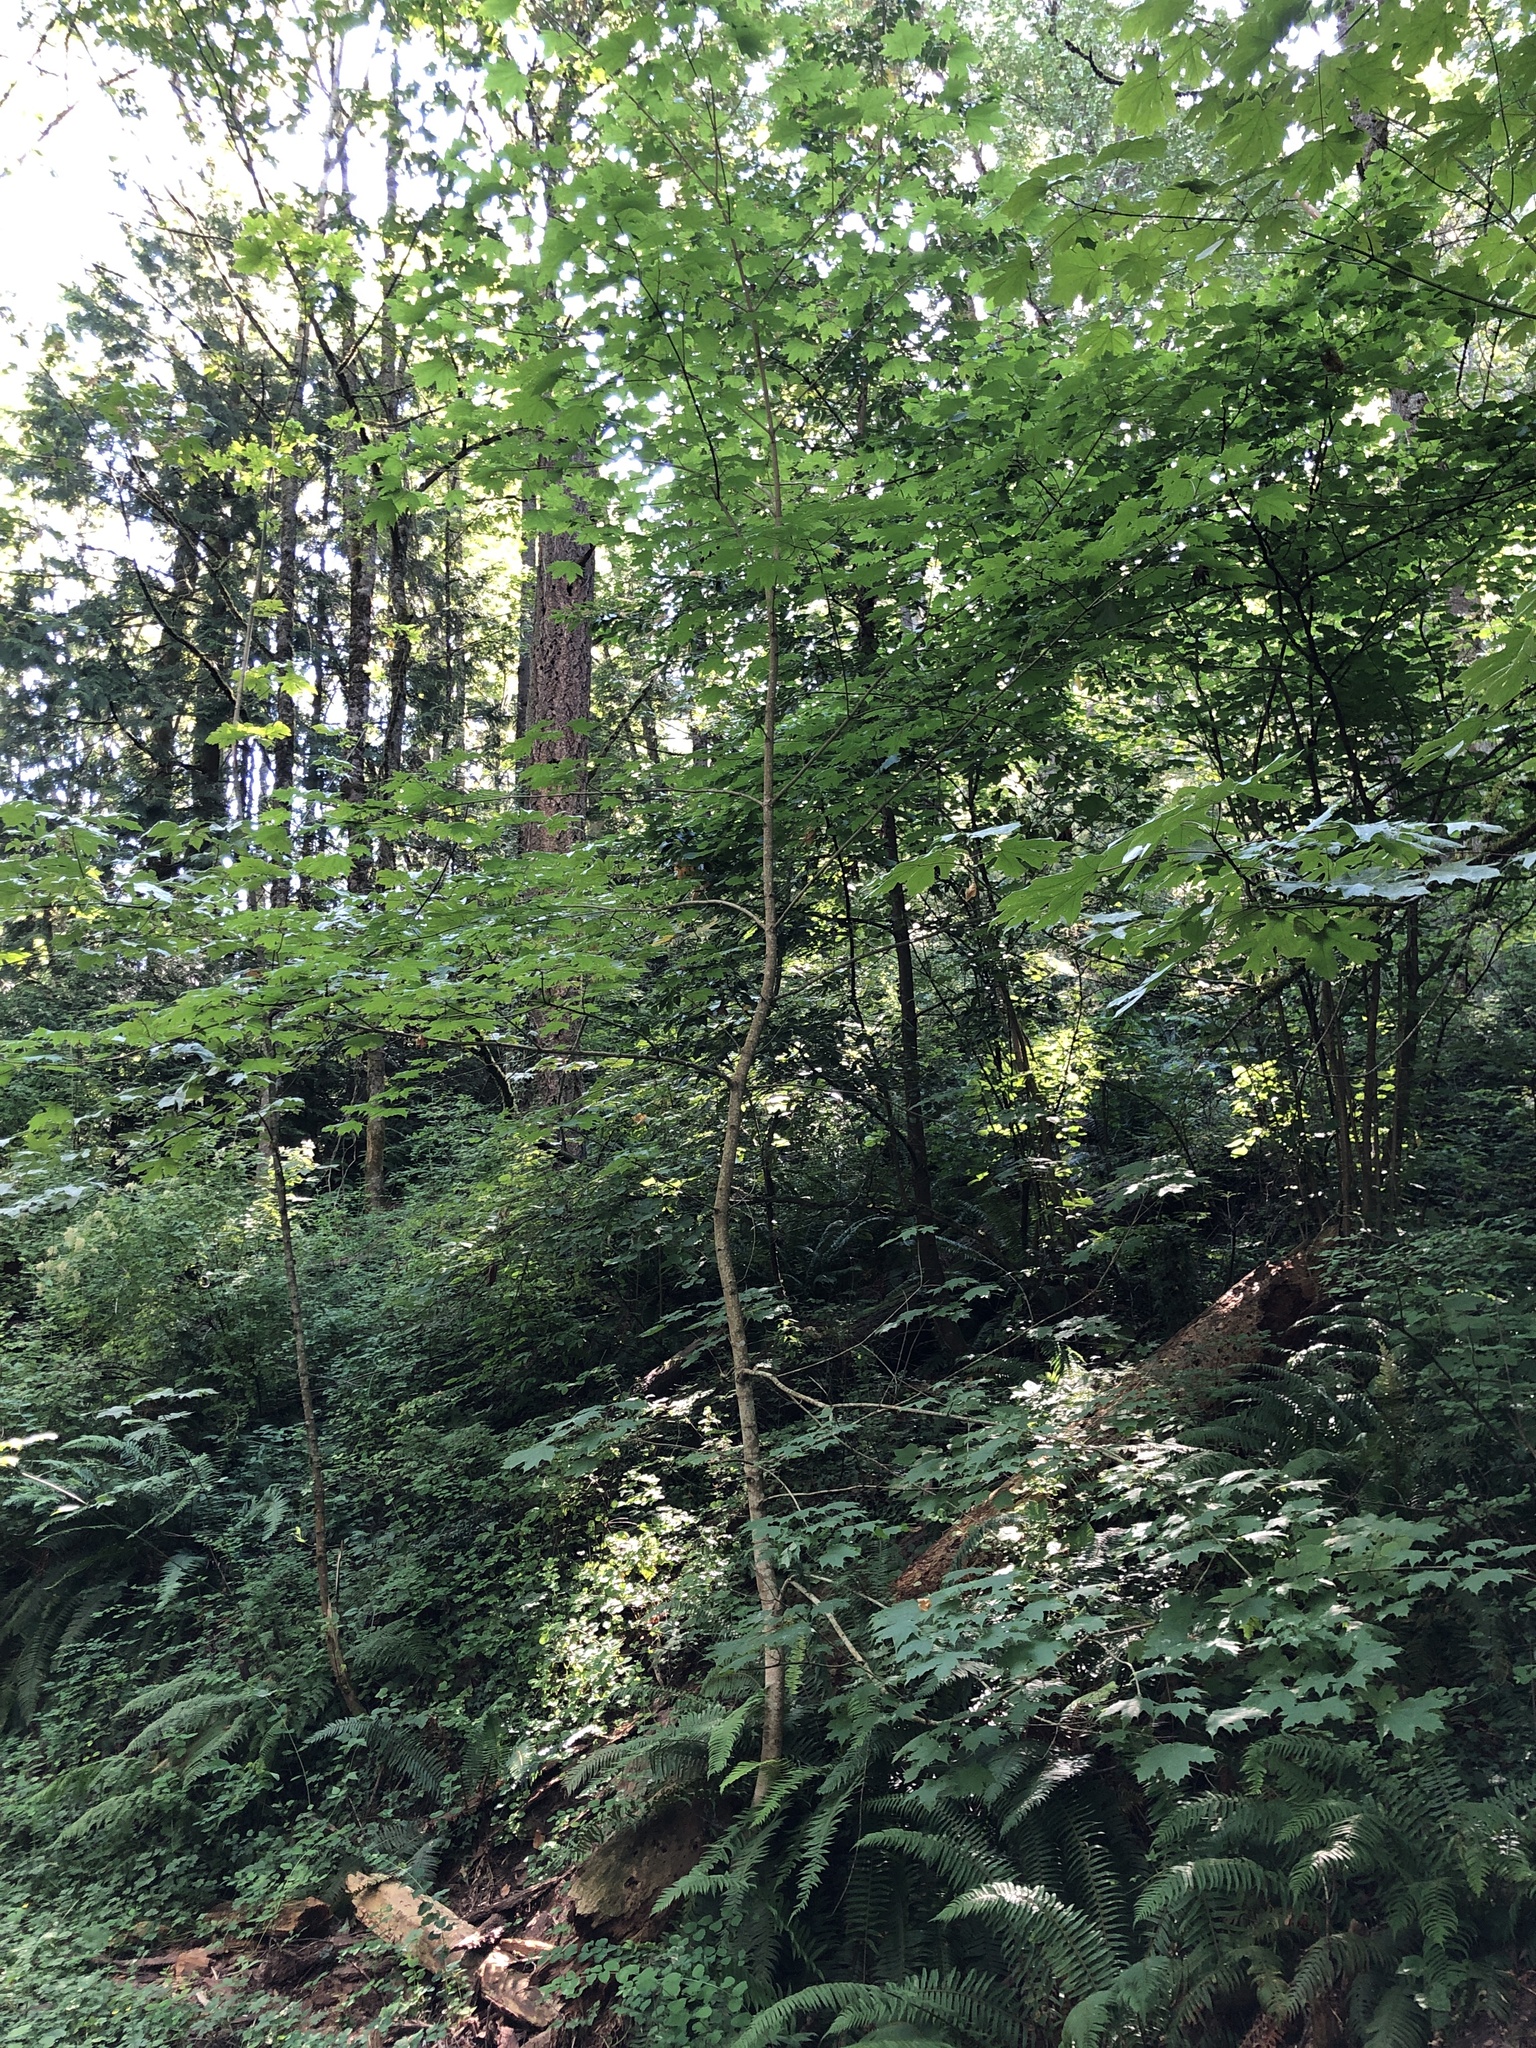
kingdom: Plantae
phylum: Tracheophyta
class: Magnoliopsida
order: Sapindales
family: Sapindaceae
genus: Acer
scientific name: Acer platanoides
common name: Norway maple
